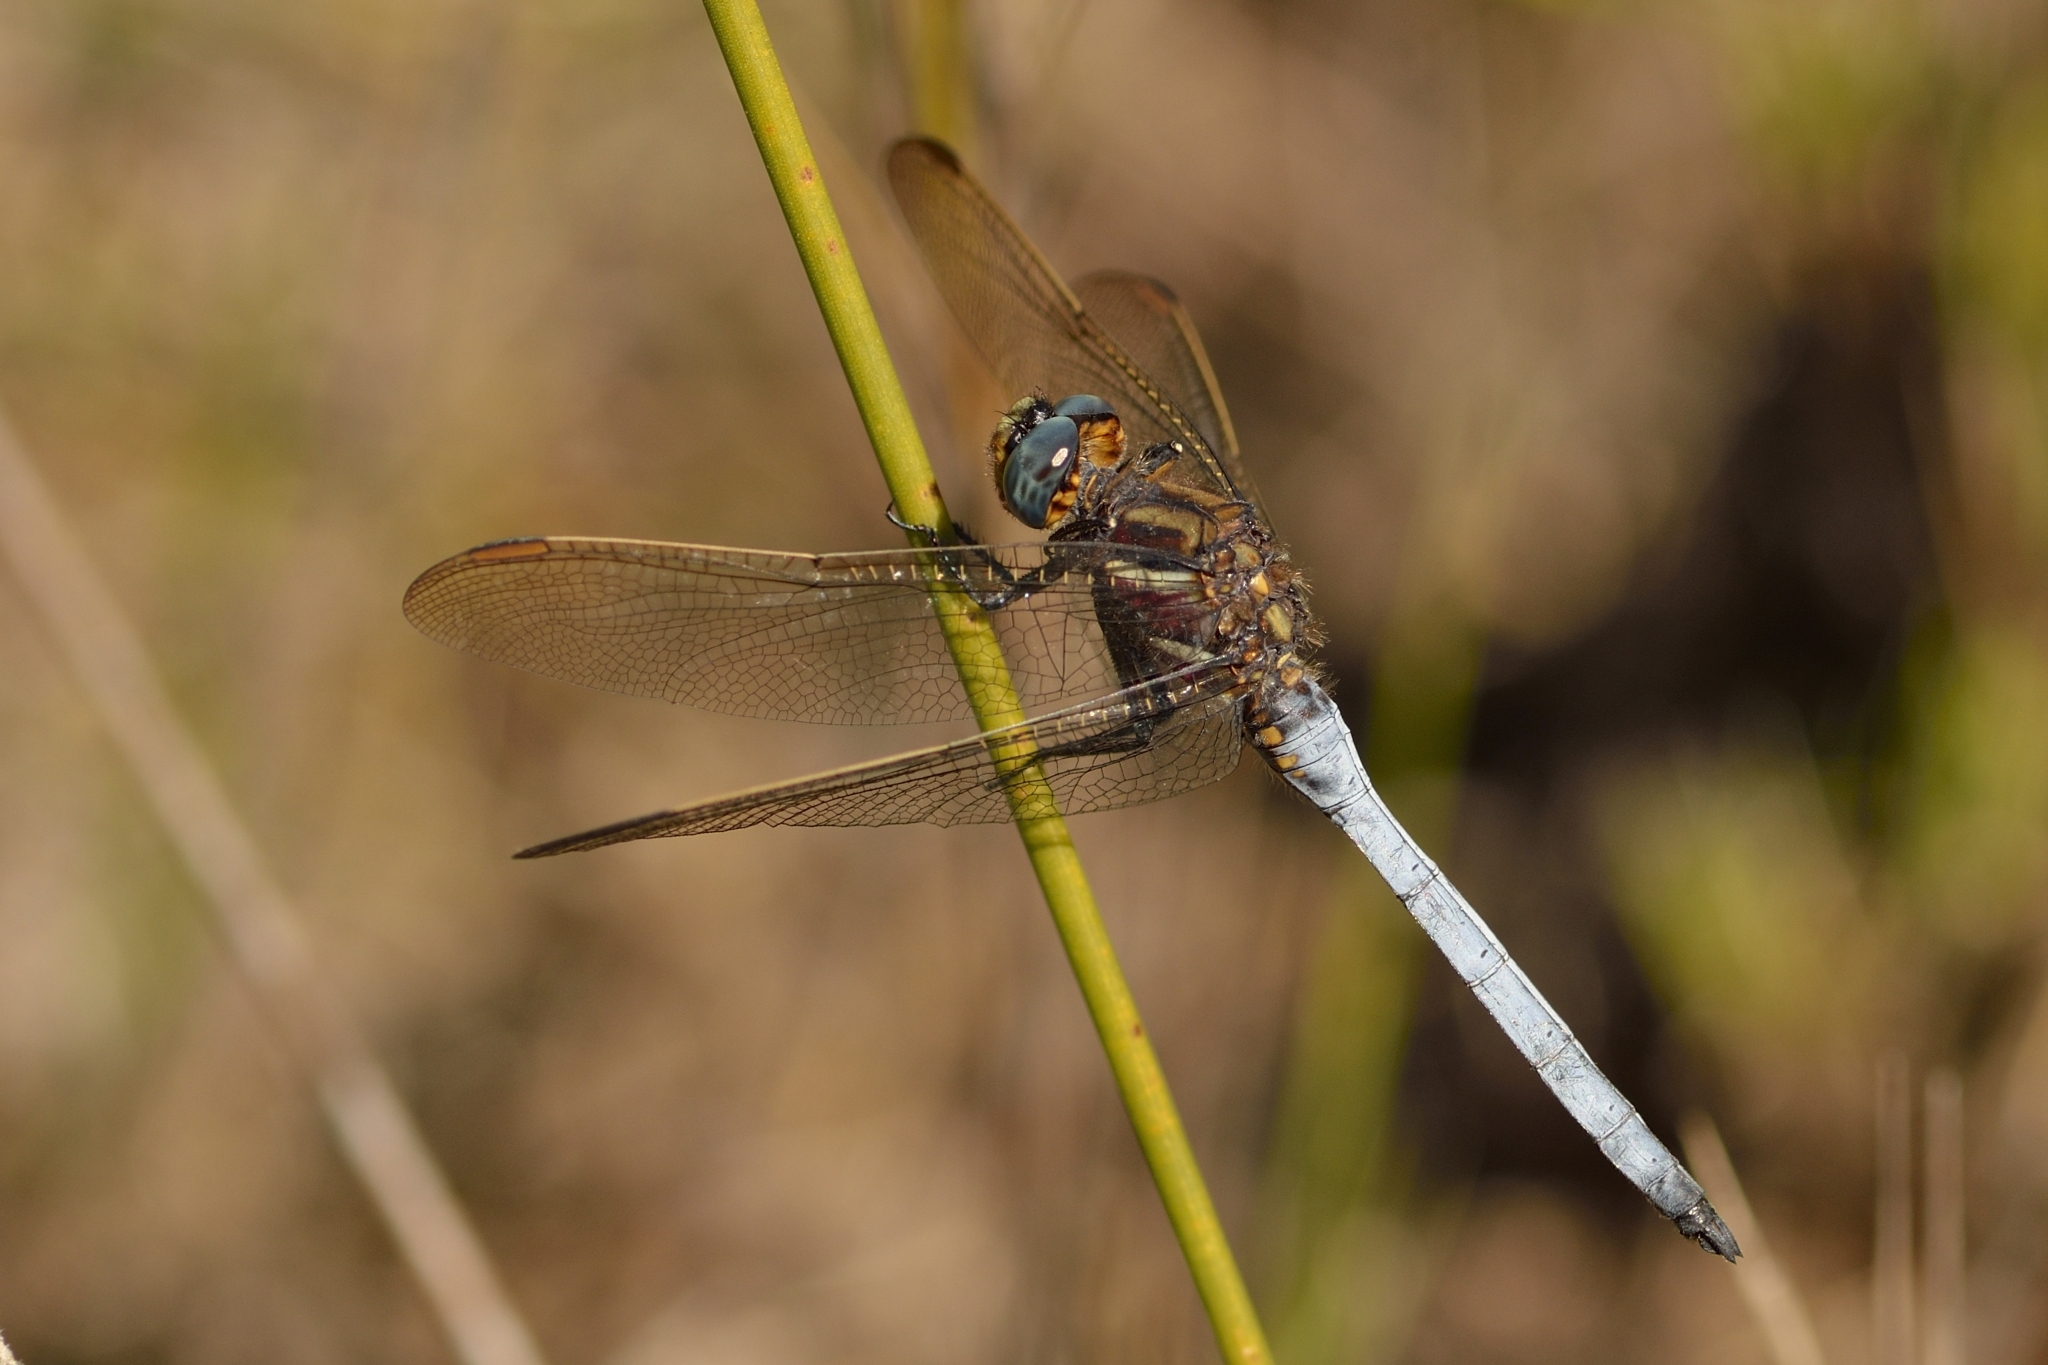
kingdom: Animalia
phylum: Arthropoda
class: Insecta
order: Odonata
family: Libellulidae
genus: Orthetrum
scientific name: Orthetrum rubens
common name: Elusive skimmer
